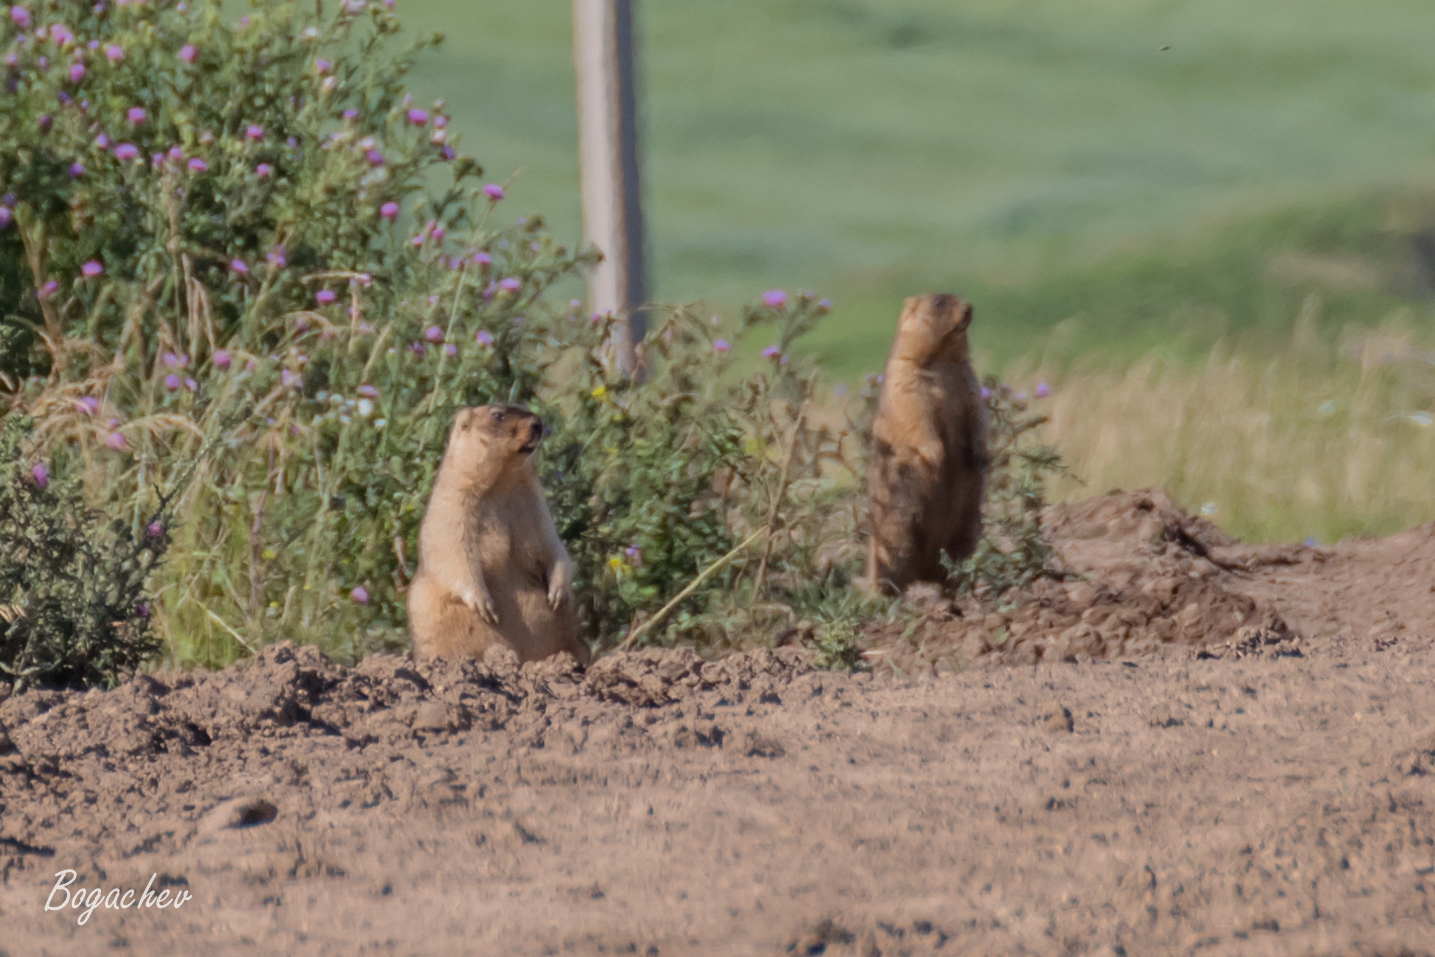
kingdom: Animalia
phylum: Chordata
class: Mammalia
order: Rodentia
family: Sciuridae
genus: Marmota
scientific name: Marmota bobak
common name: Bobak marmot
